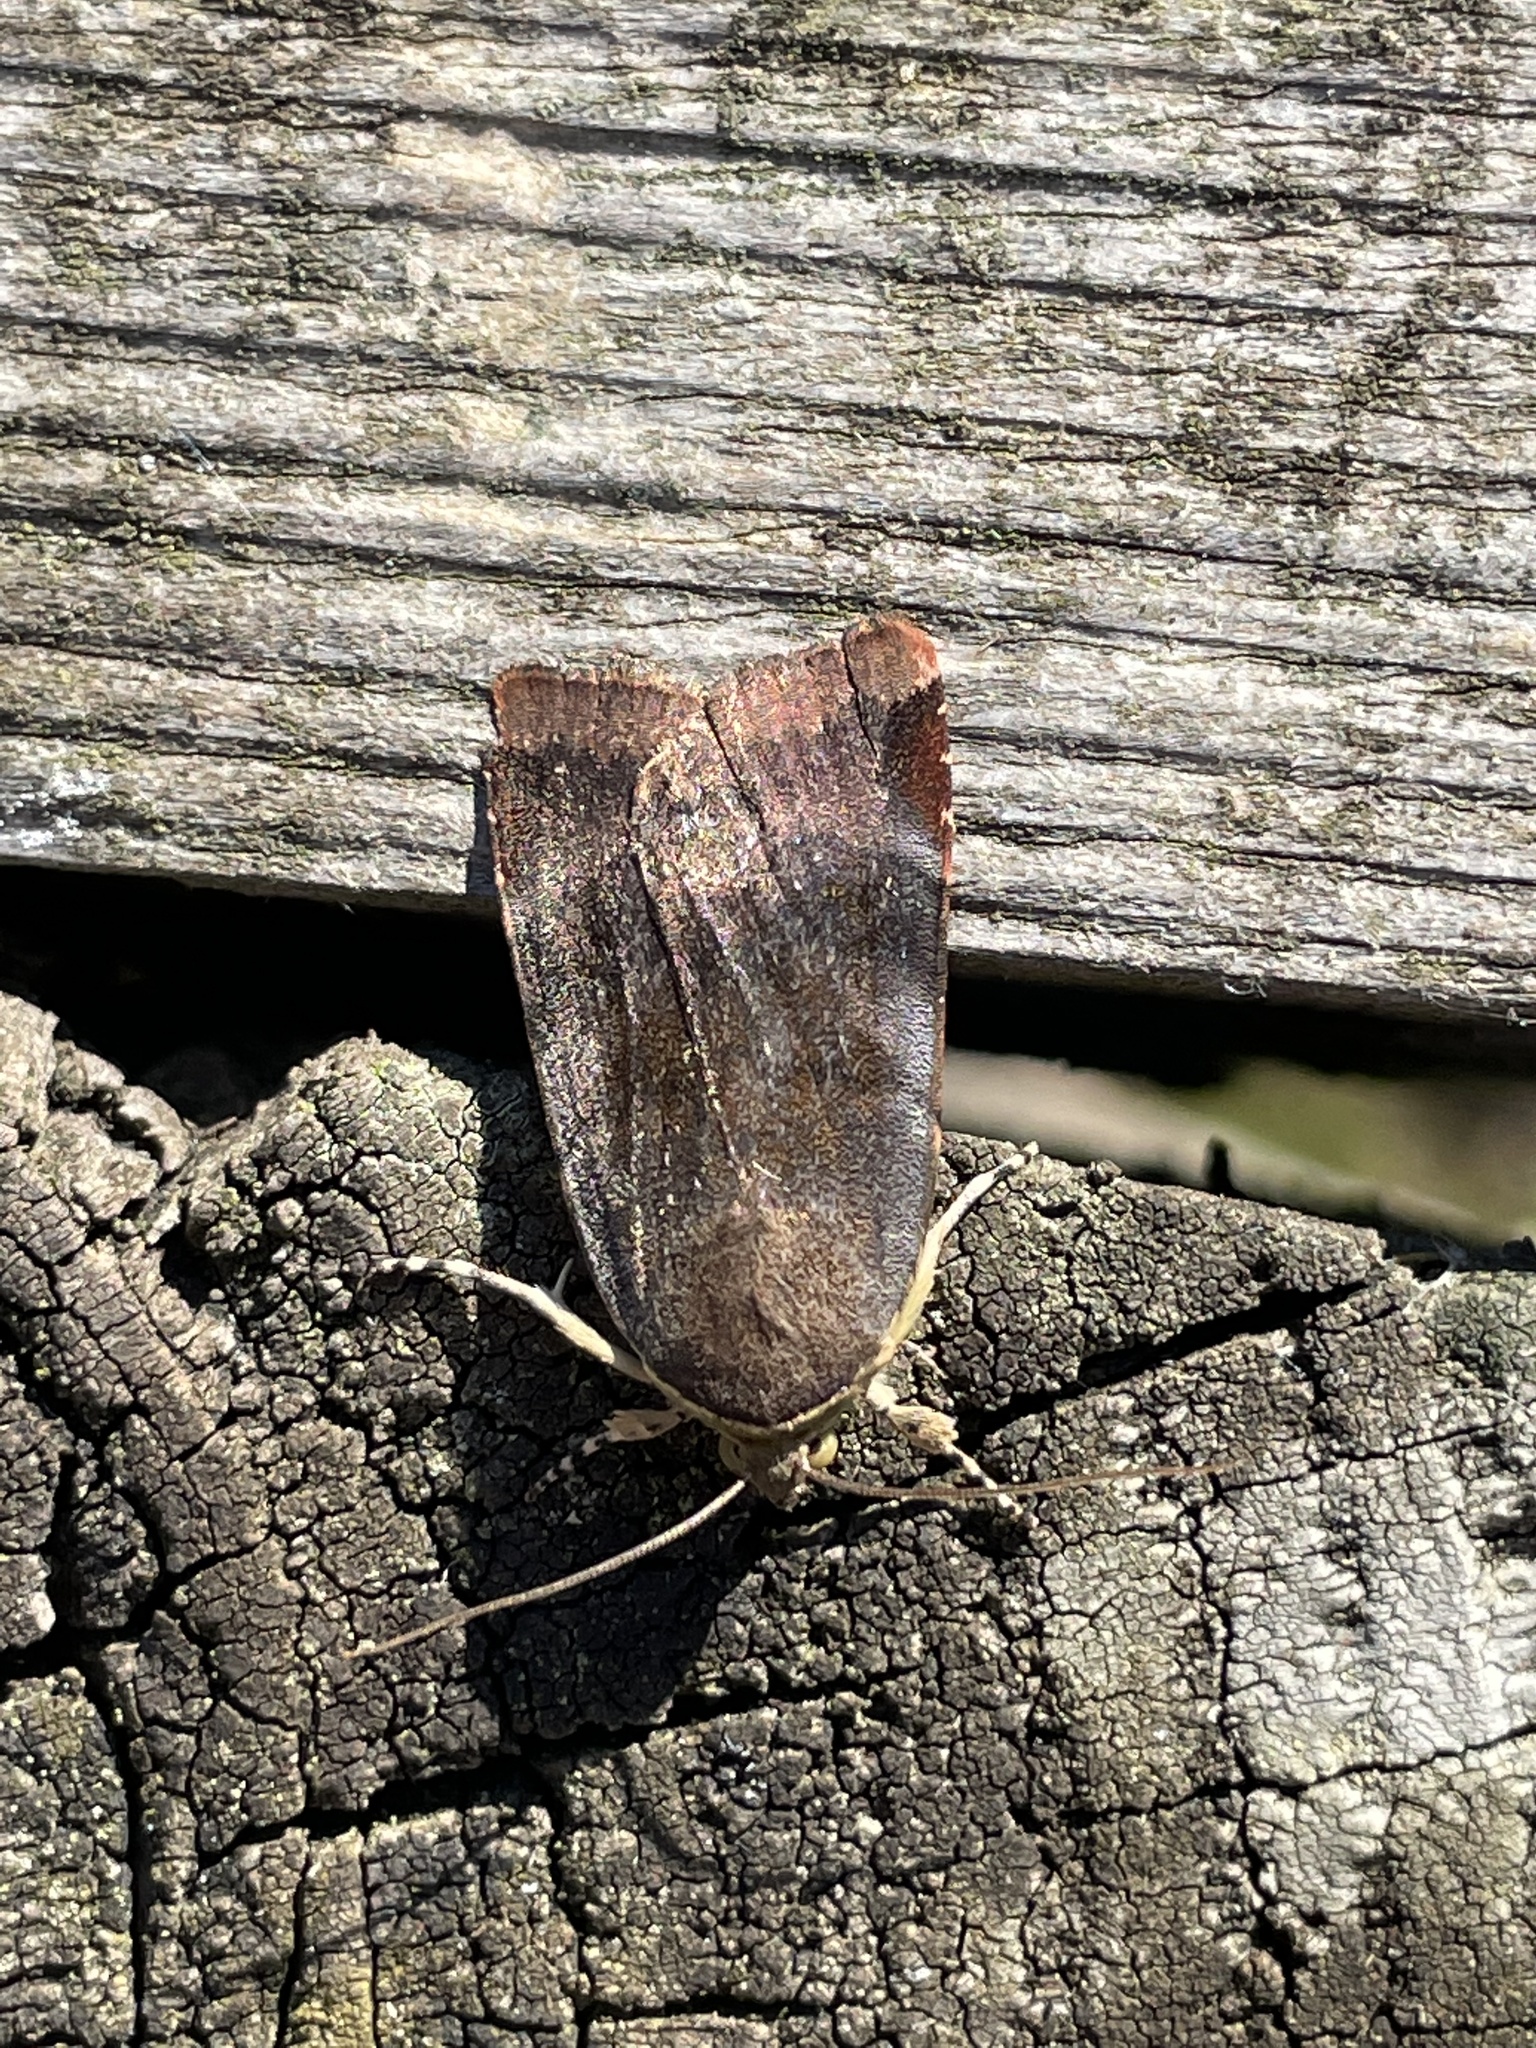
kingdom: Animalia
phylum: Arthropoda
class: Insecta
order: Lepidoptera
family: Noctuidae
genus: Noctua
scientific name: Noctua janthe
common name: Lesser broad-bordered yellow underwing
